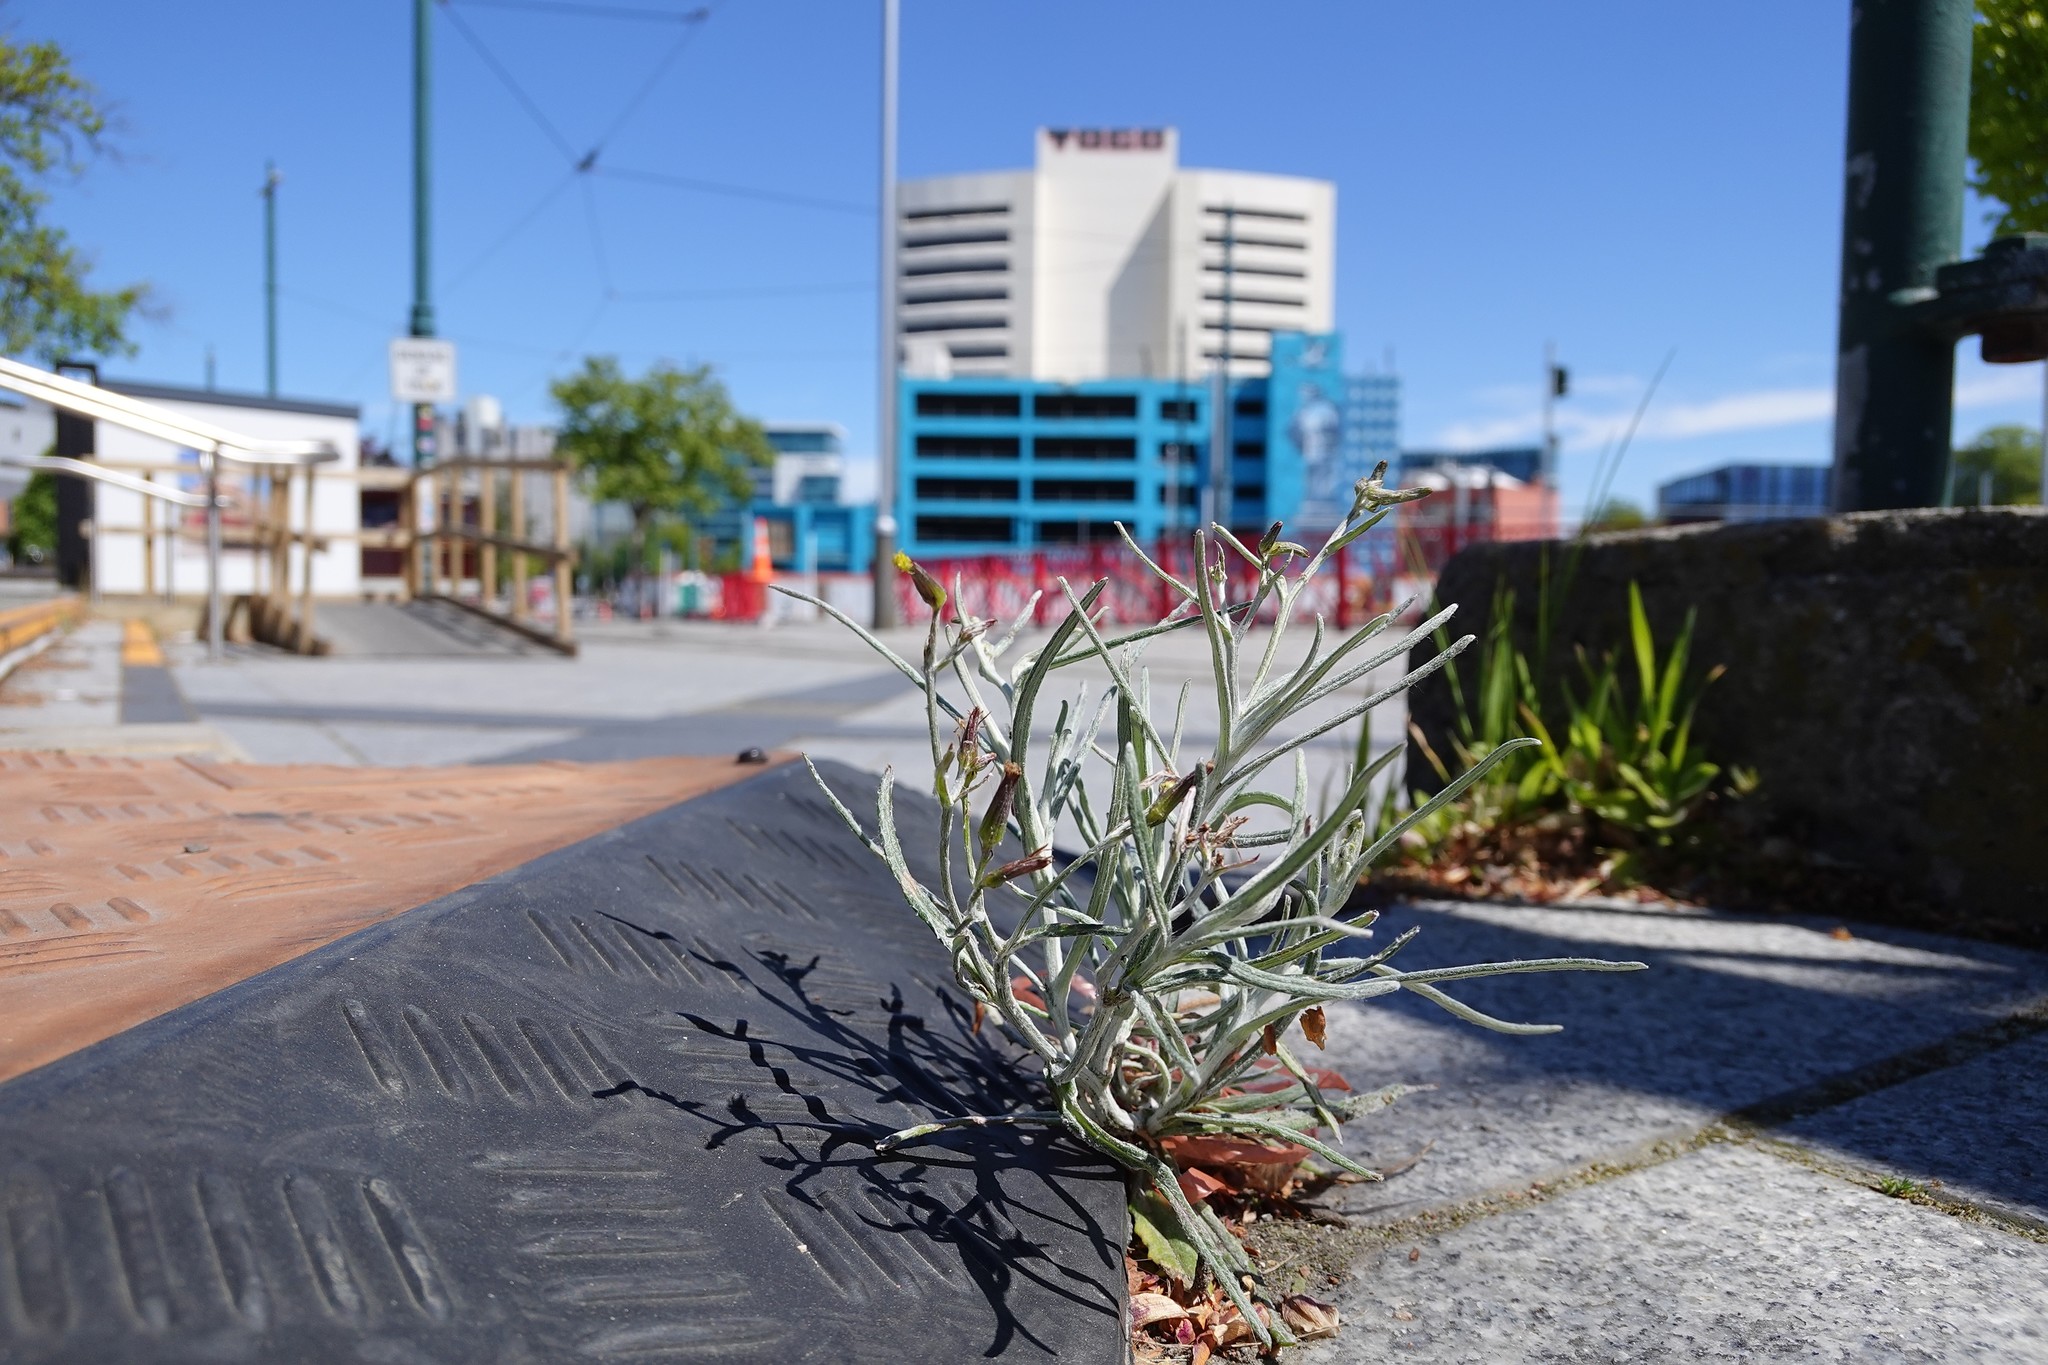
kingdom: Plantae
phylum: Tracheophyta
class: Magnoliopsida
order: Asterales
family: Asteraceae
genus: Senecio
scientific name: Senecio quadridentatus
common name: Cotton fireweed
